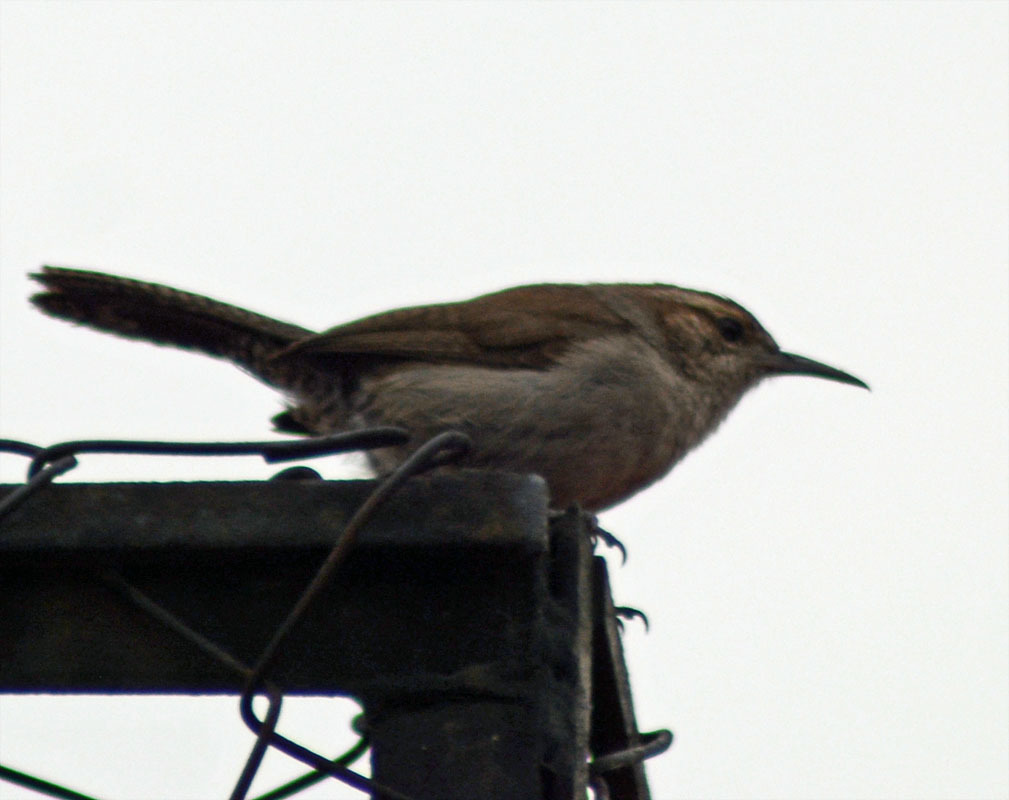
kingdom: Animalia
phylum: Chordata
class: Aves
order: Passeriformes
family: Troglodytidae
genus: Thryomanes
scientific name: Thryomanes bewickii
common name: Bewick's wren
